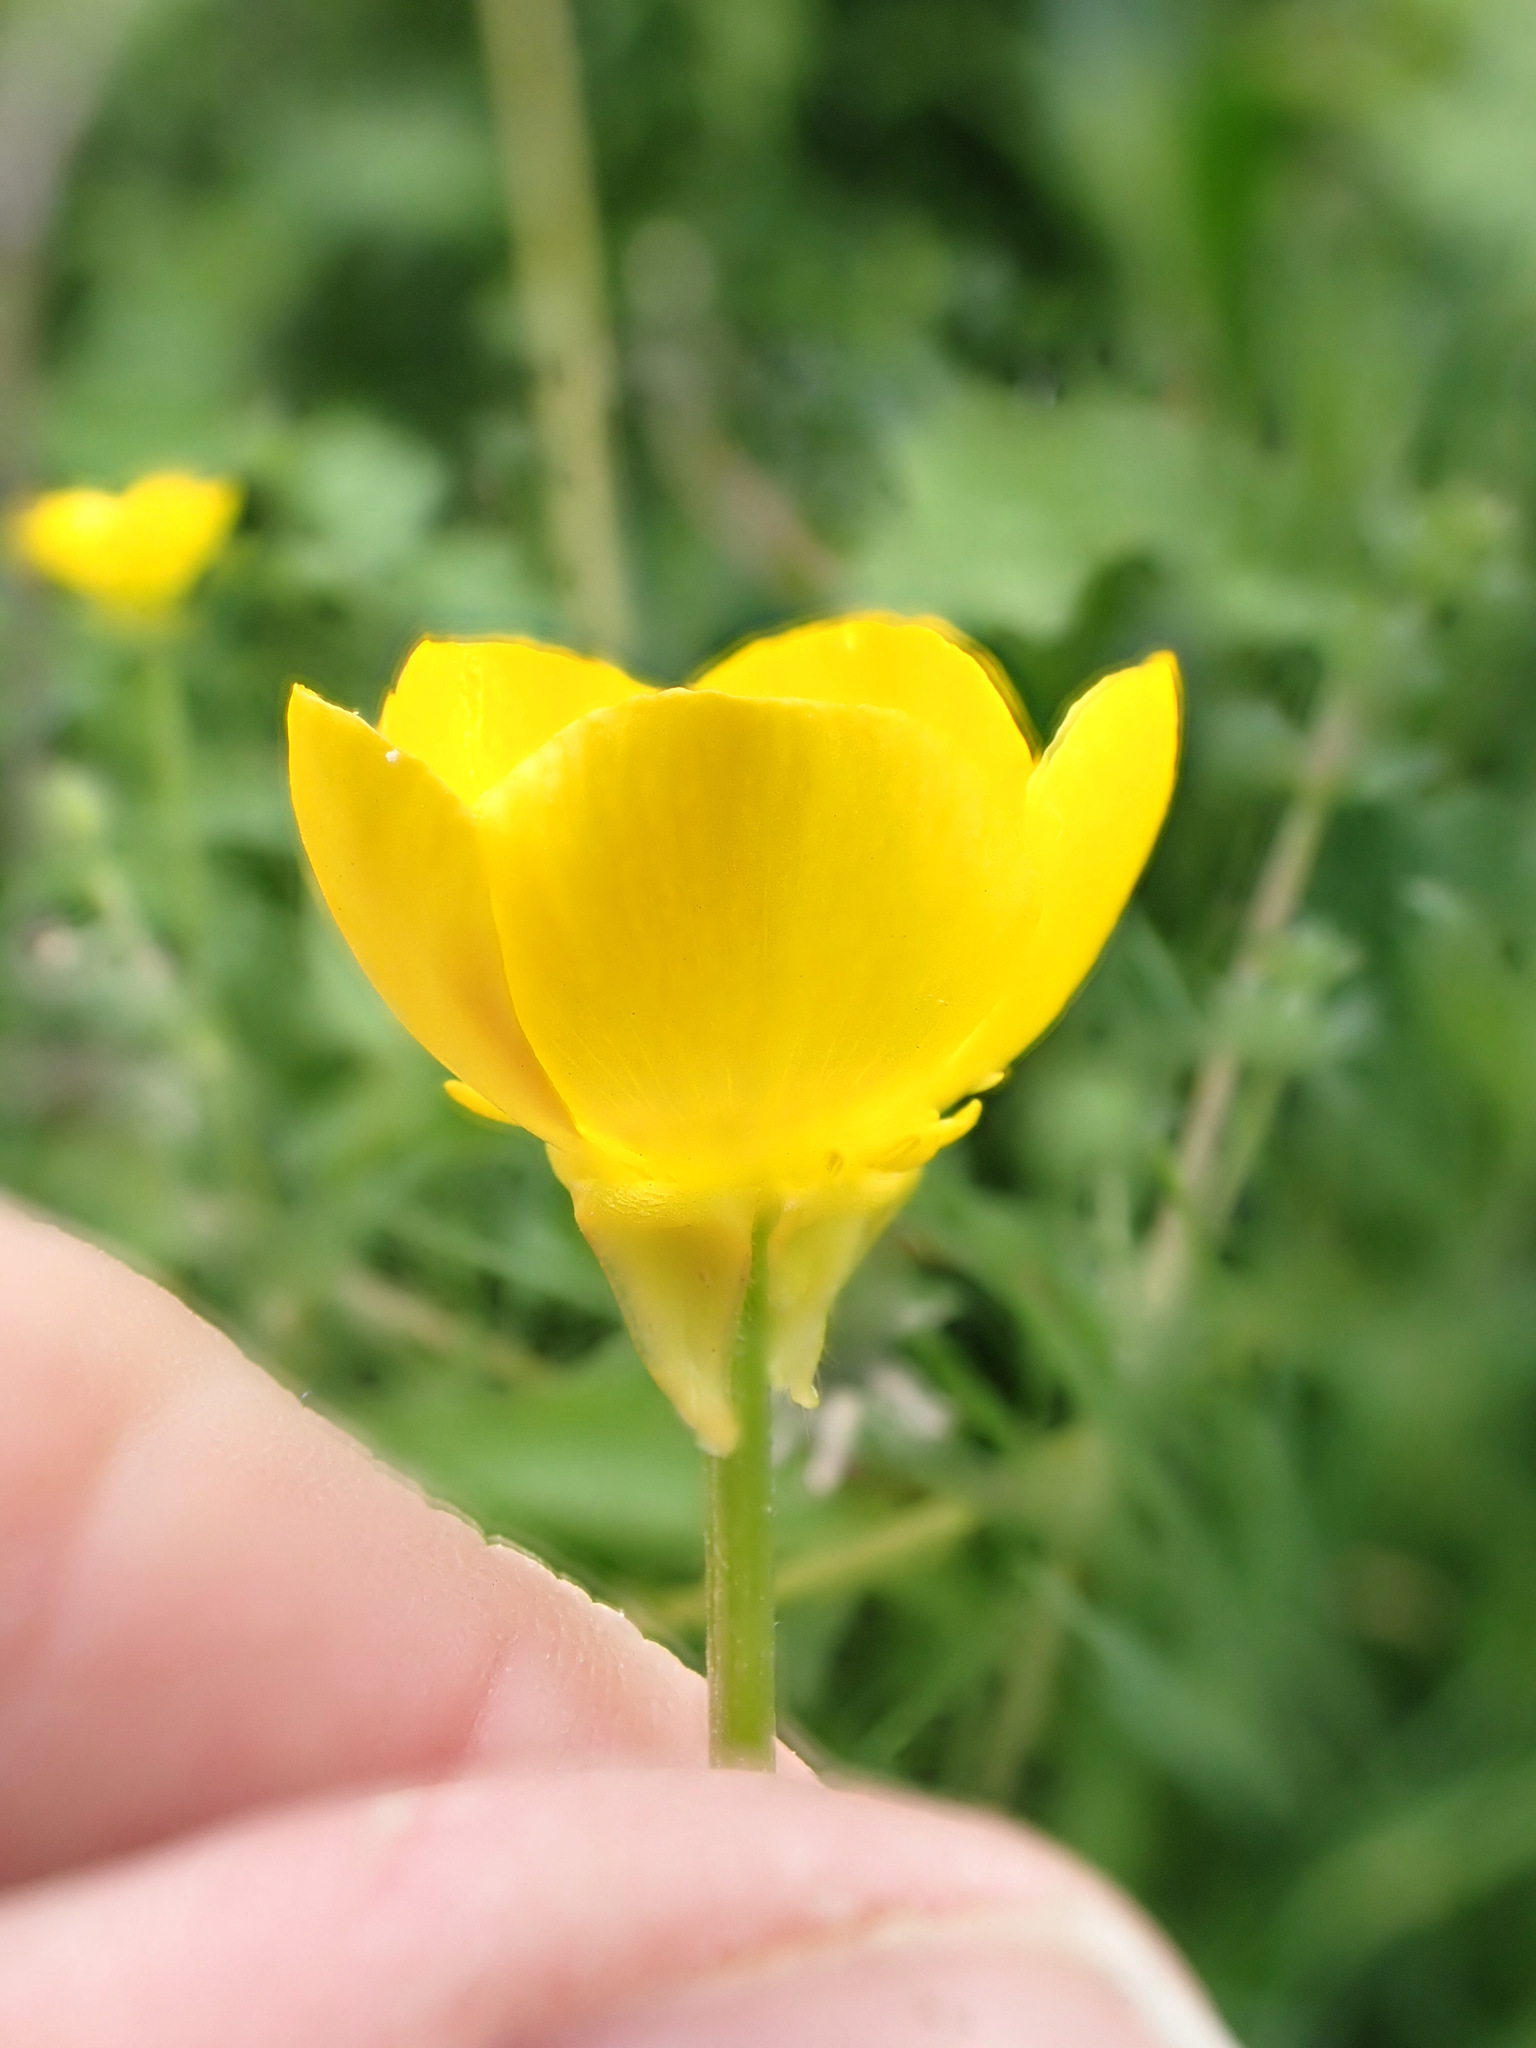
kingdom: Plantae
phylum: Tracheophyta
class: Magnoliopsida
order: Ranunculales
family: Ranunculaceae
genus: Ranunculus
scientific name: Ranunculus bulbosus
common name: Bulbous buttercup
